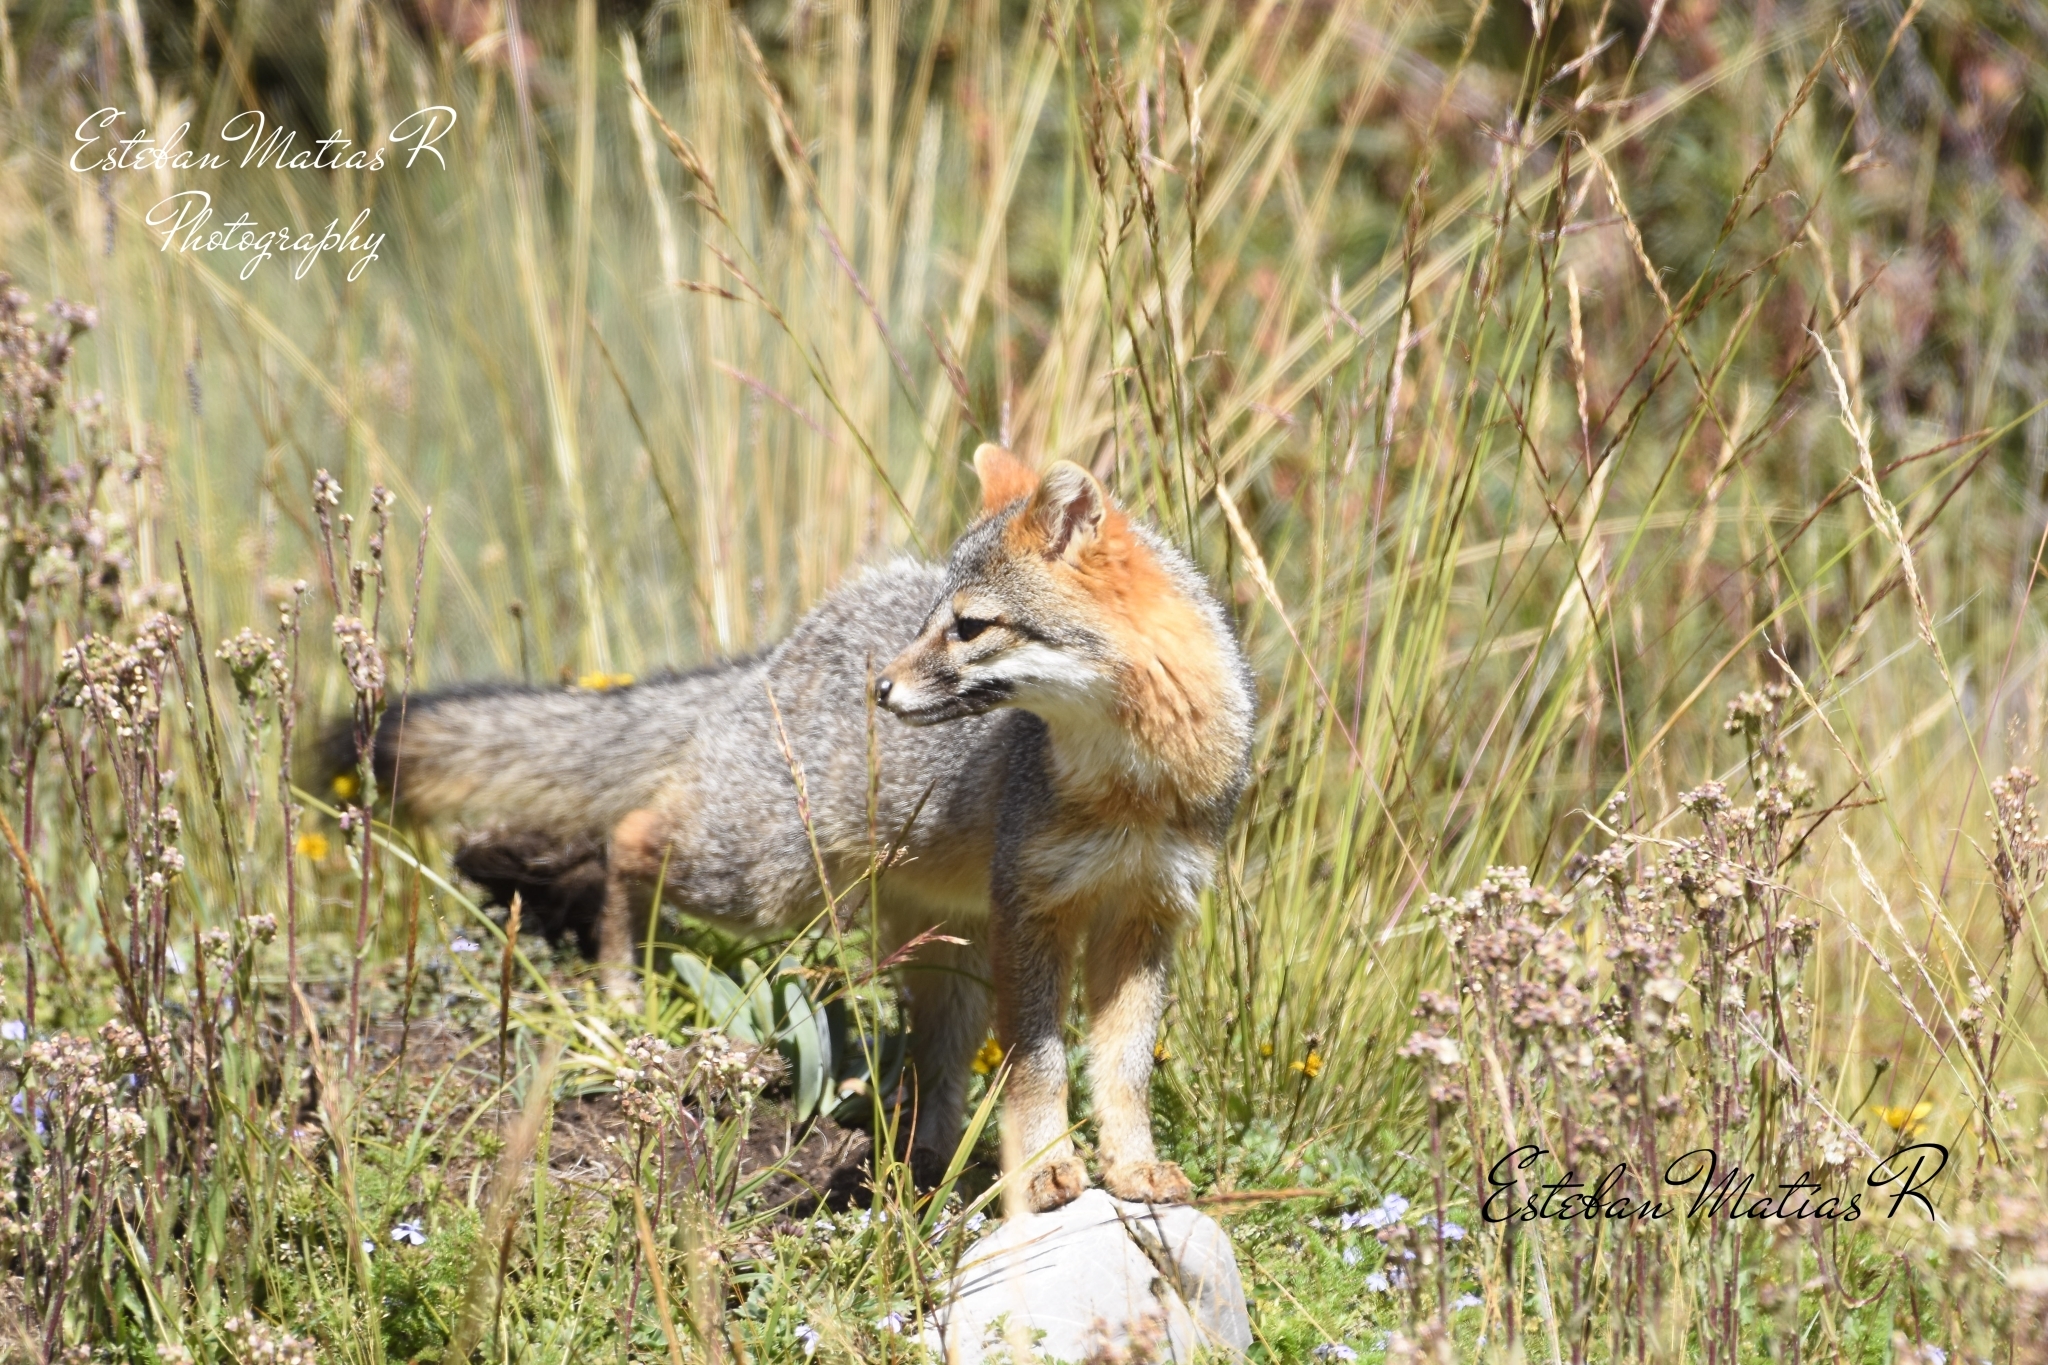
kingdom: Animalia
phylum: Chordata
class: Mammalia
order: Carnivora
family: Canidae
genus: Urocyon
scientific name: Urocyon cinereoargenteus
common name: Gray fox
